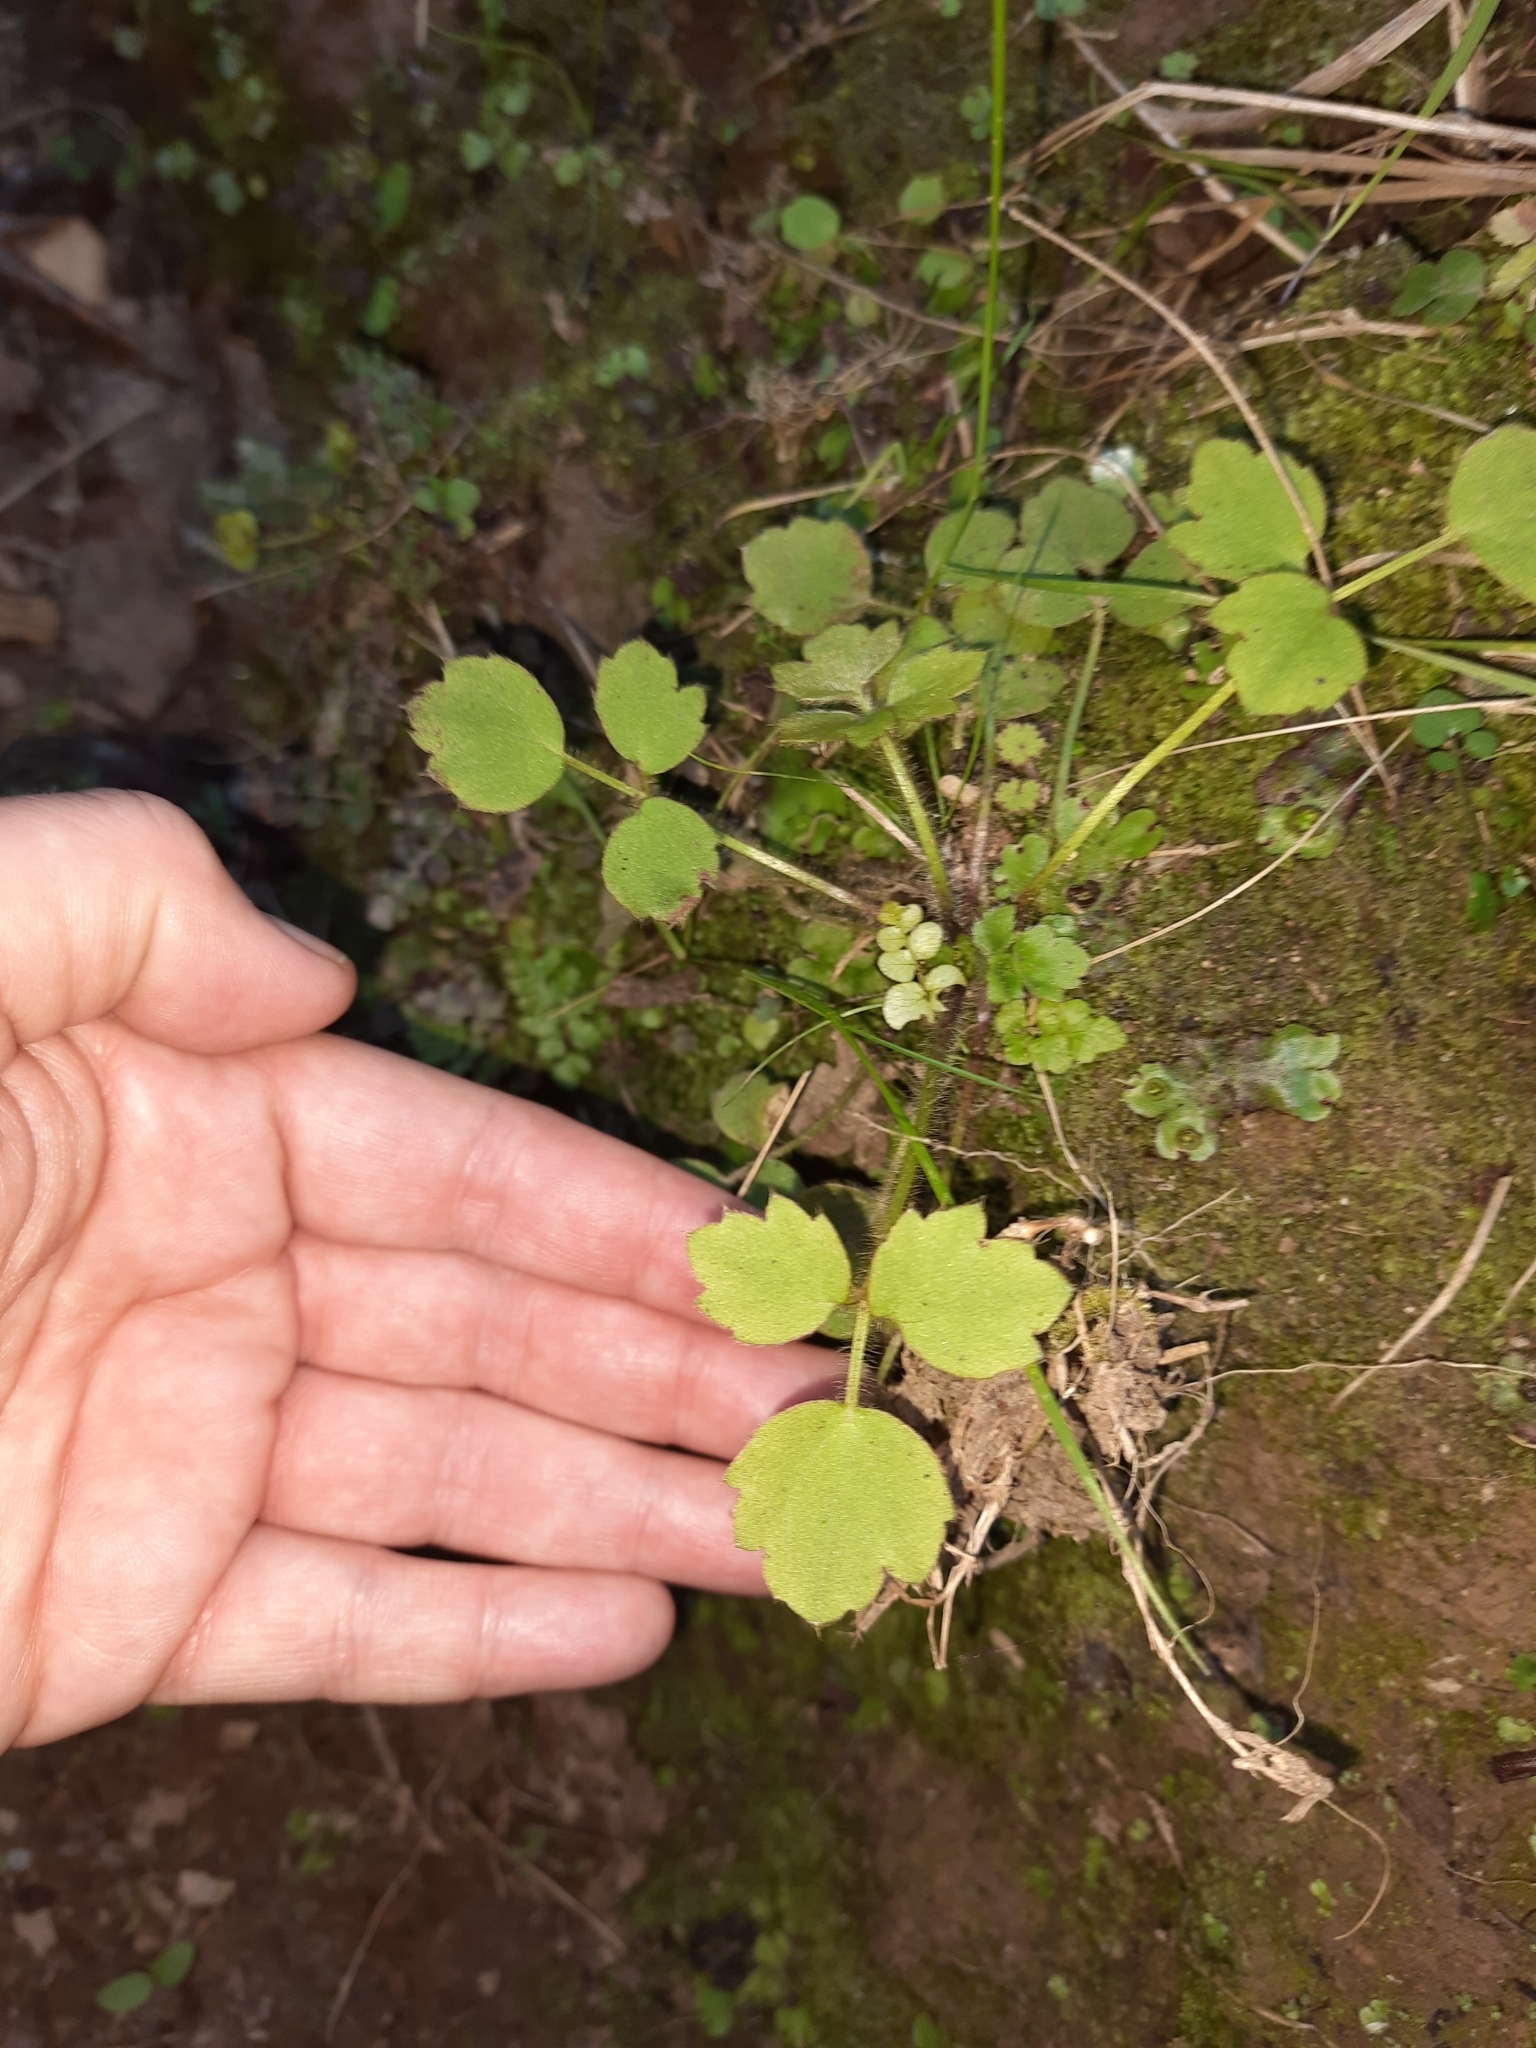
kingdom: Plantae
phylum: Tracheophyta
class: Magnoliopsida
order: Ranunculales
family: Ranunculaceae
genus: Ranunculus
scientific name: Ranunculus reflexus
